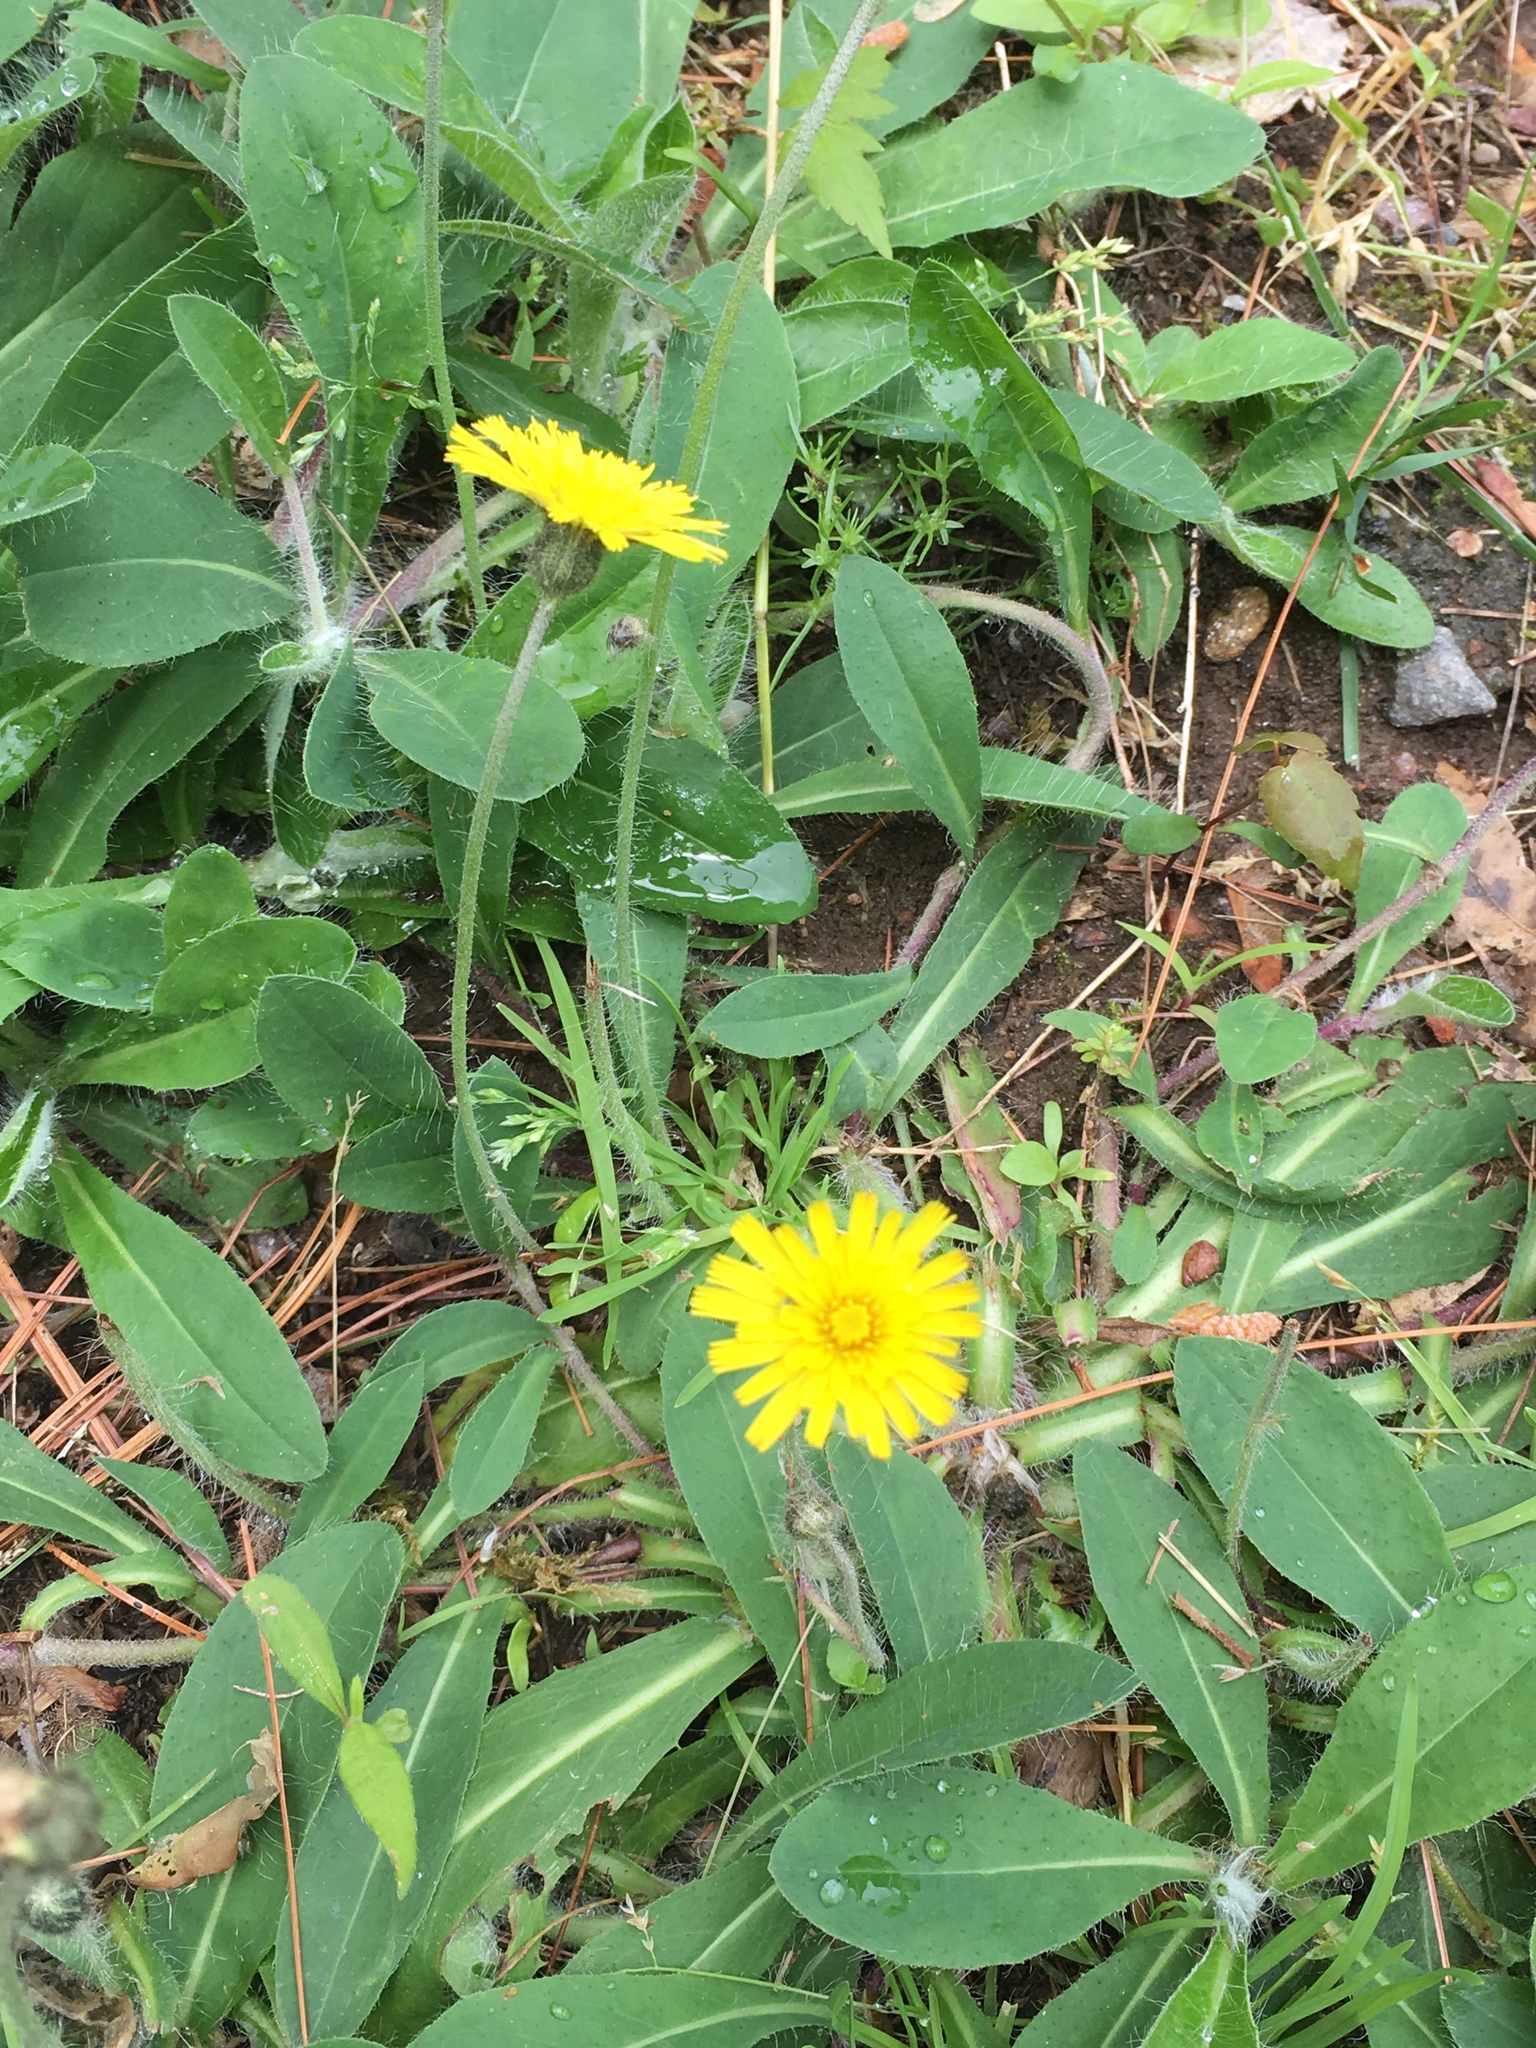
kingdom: Plantae
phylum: Tracheophyta
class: Magnoliopsida
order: Asterales
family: Asteraceae
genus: Pilosella
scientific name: Pilosella officinarum
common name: Mouse-ear hawkweed
